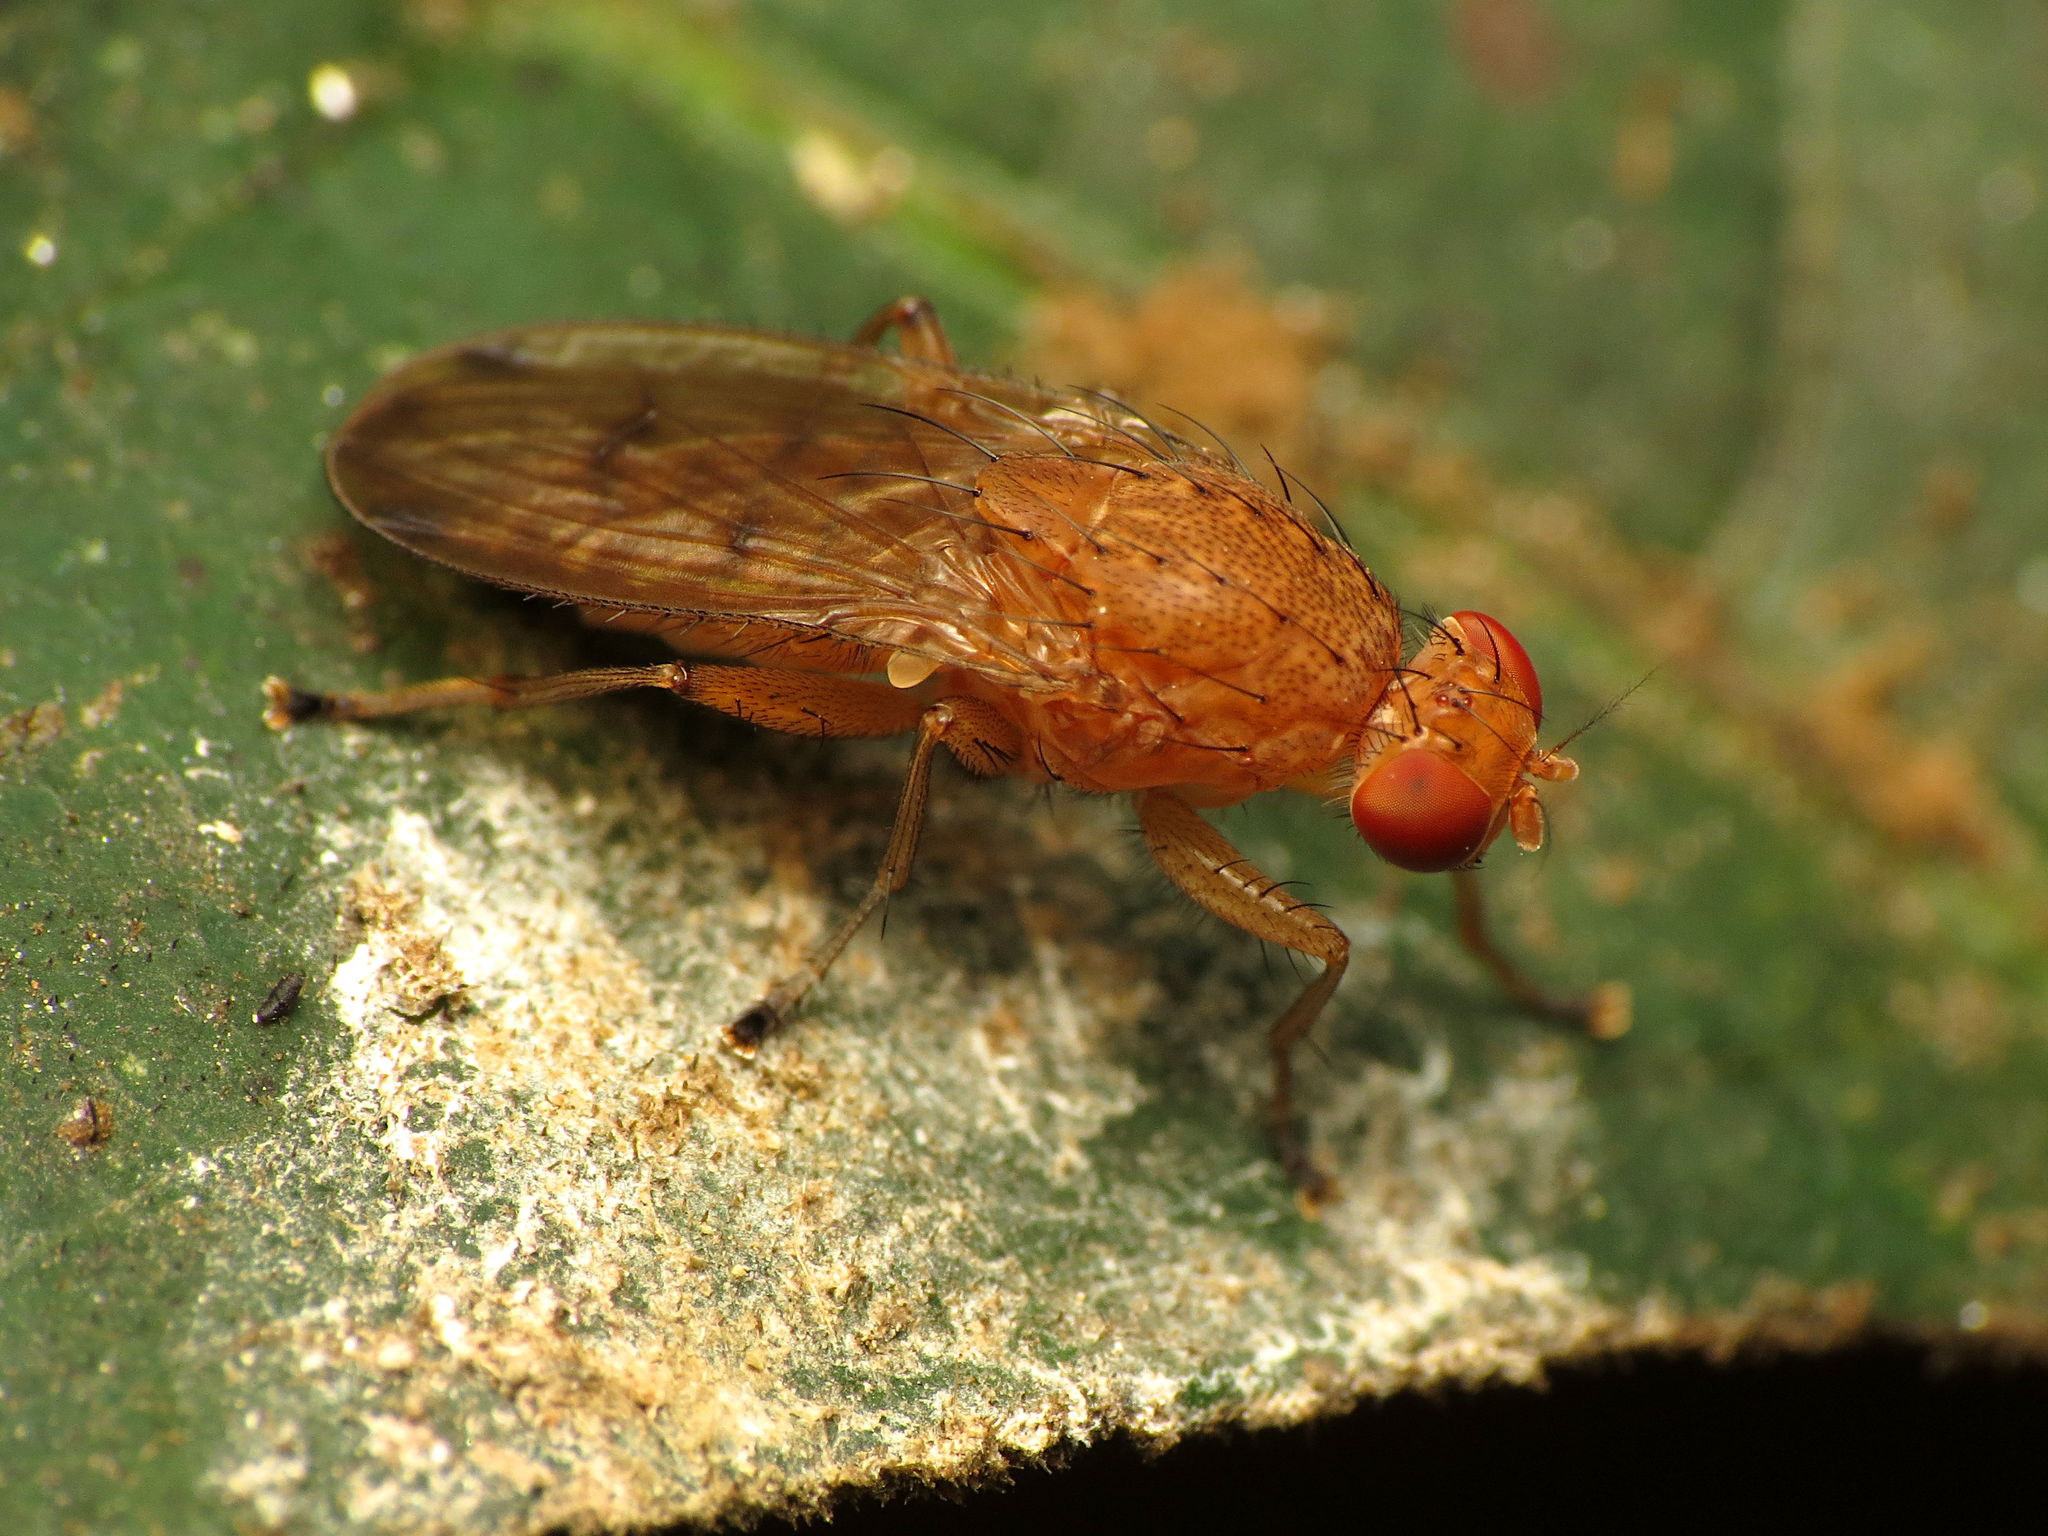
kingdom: Animalia
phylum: Arthropoda
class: Insecta
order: Diptera
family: Heleomyzidae
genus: Suillia
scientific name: Suillia quinquepunctata
